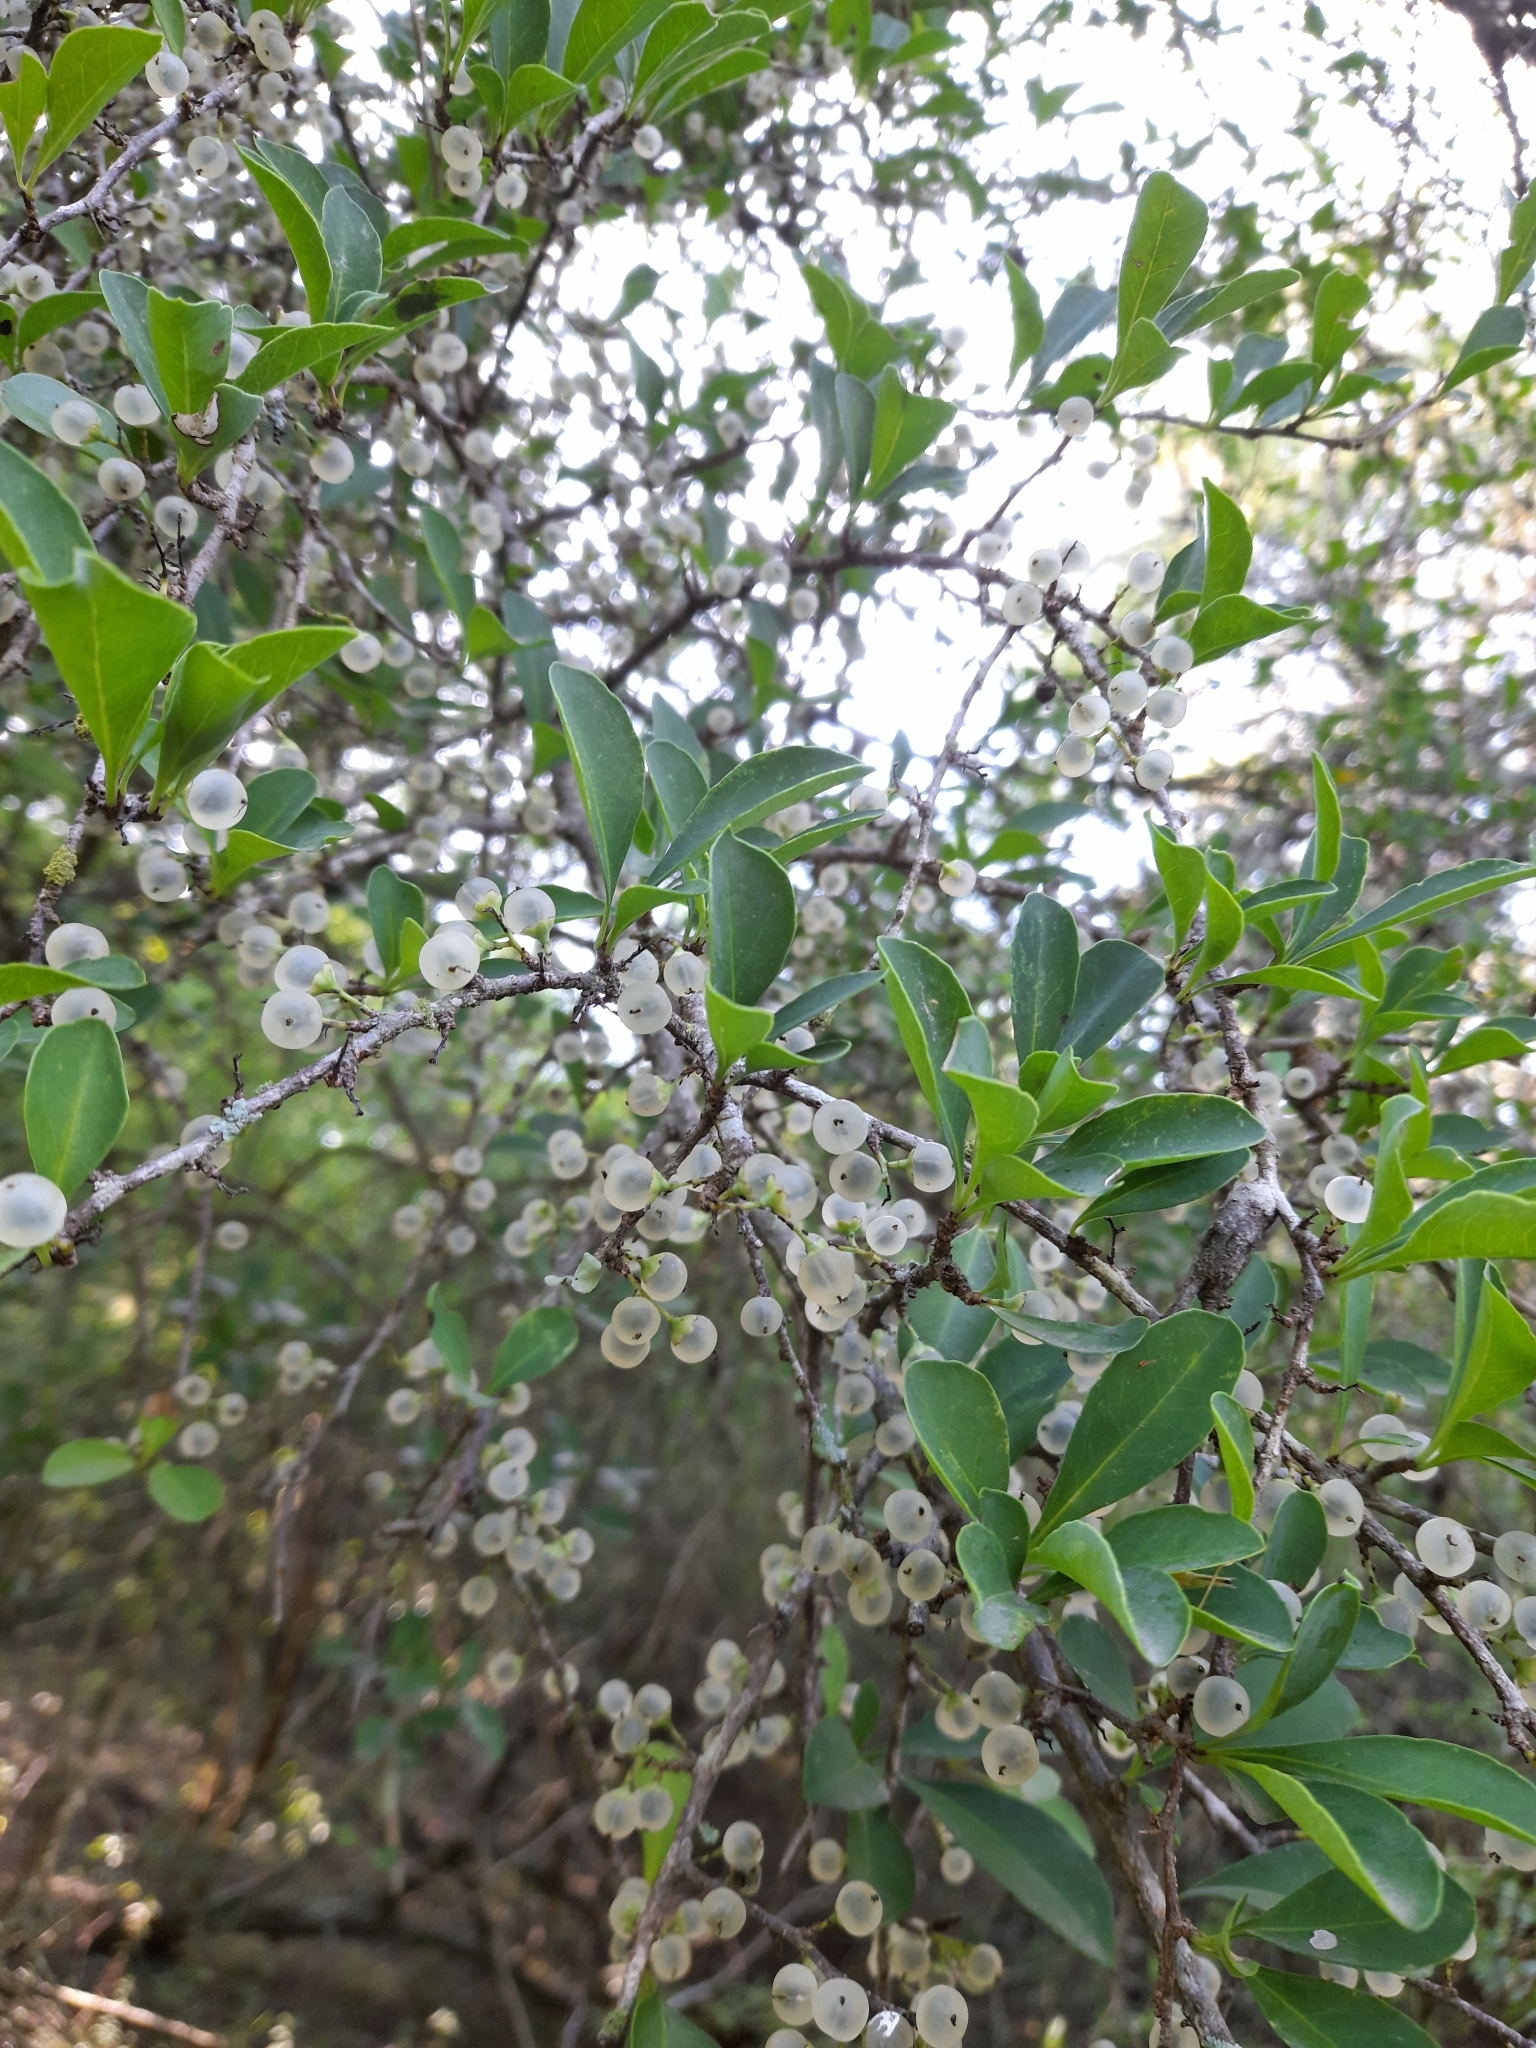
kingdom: Plantae
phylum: Tracheophyta
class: Magnoliopsida
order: Caryophyllales
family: Achatocarpaceae
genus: Achatocarpus
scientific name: Achatocarpus praecox
